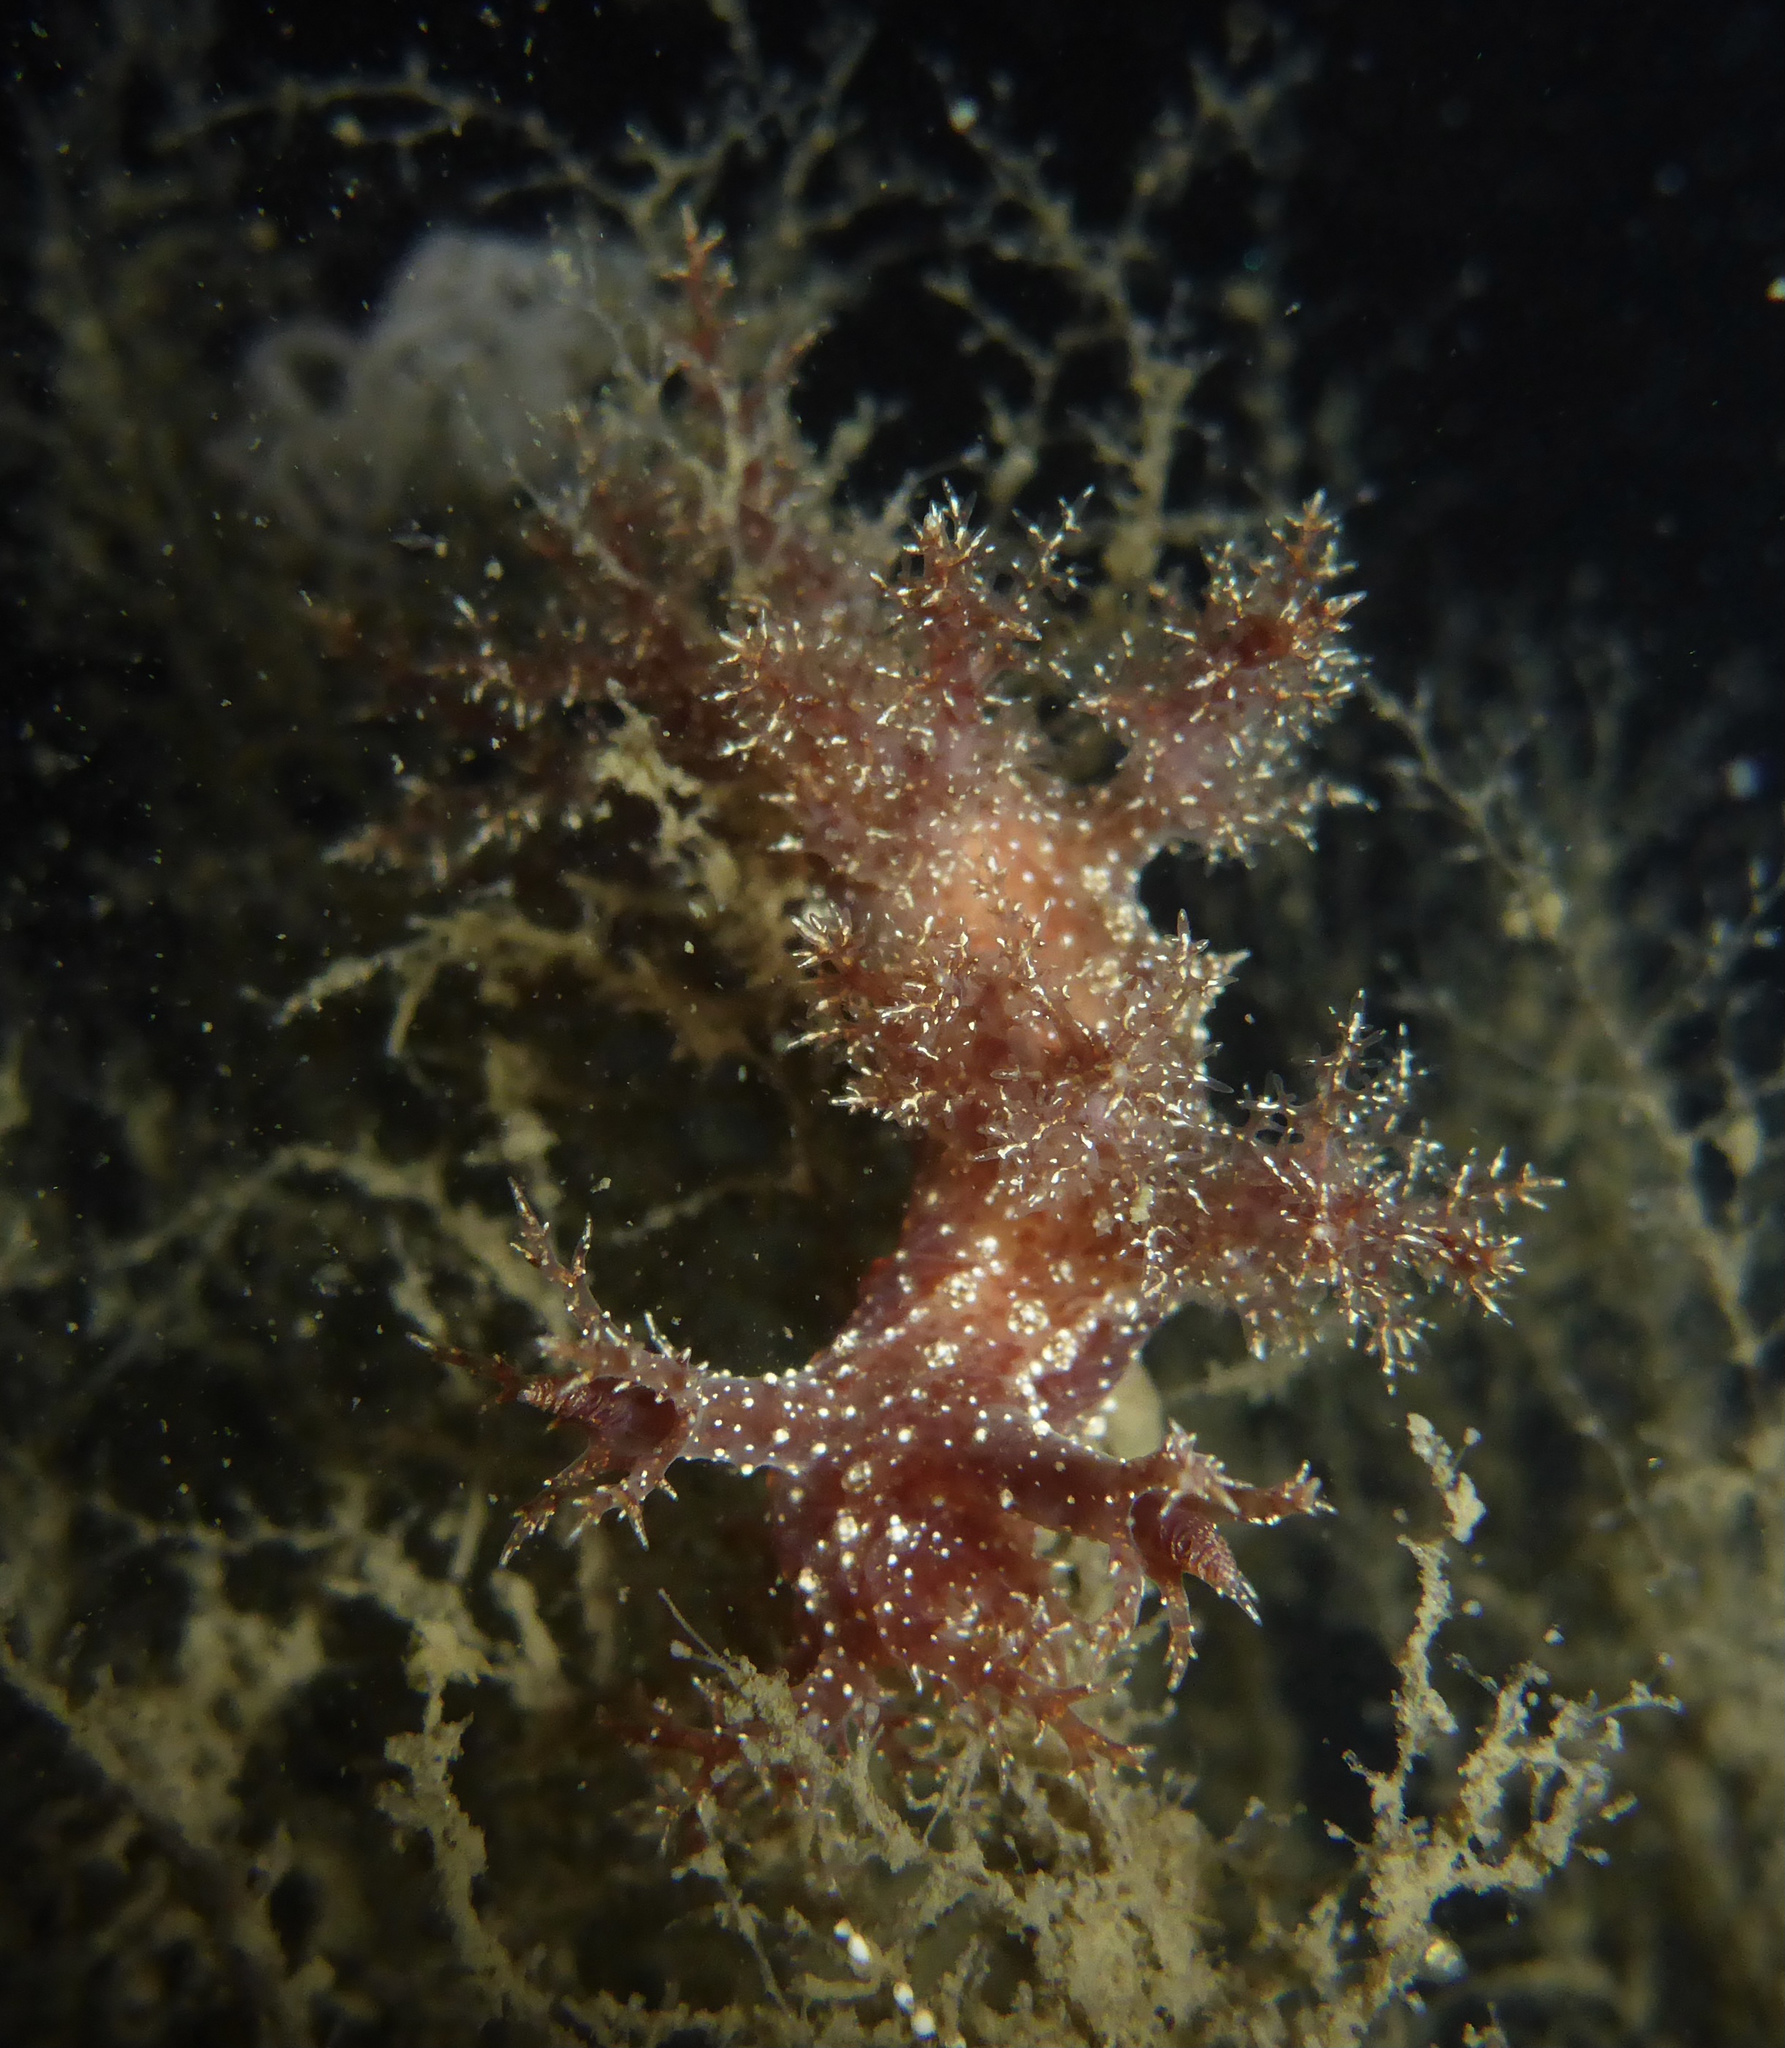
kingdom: Animalia
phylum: Mollusca
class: Gastropoda
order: Nudibranchia
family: Dendronotidae
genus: Dendronotus
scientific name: Dendronotus venustus
